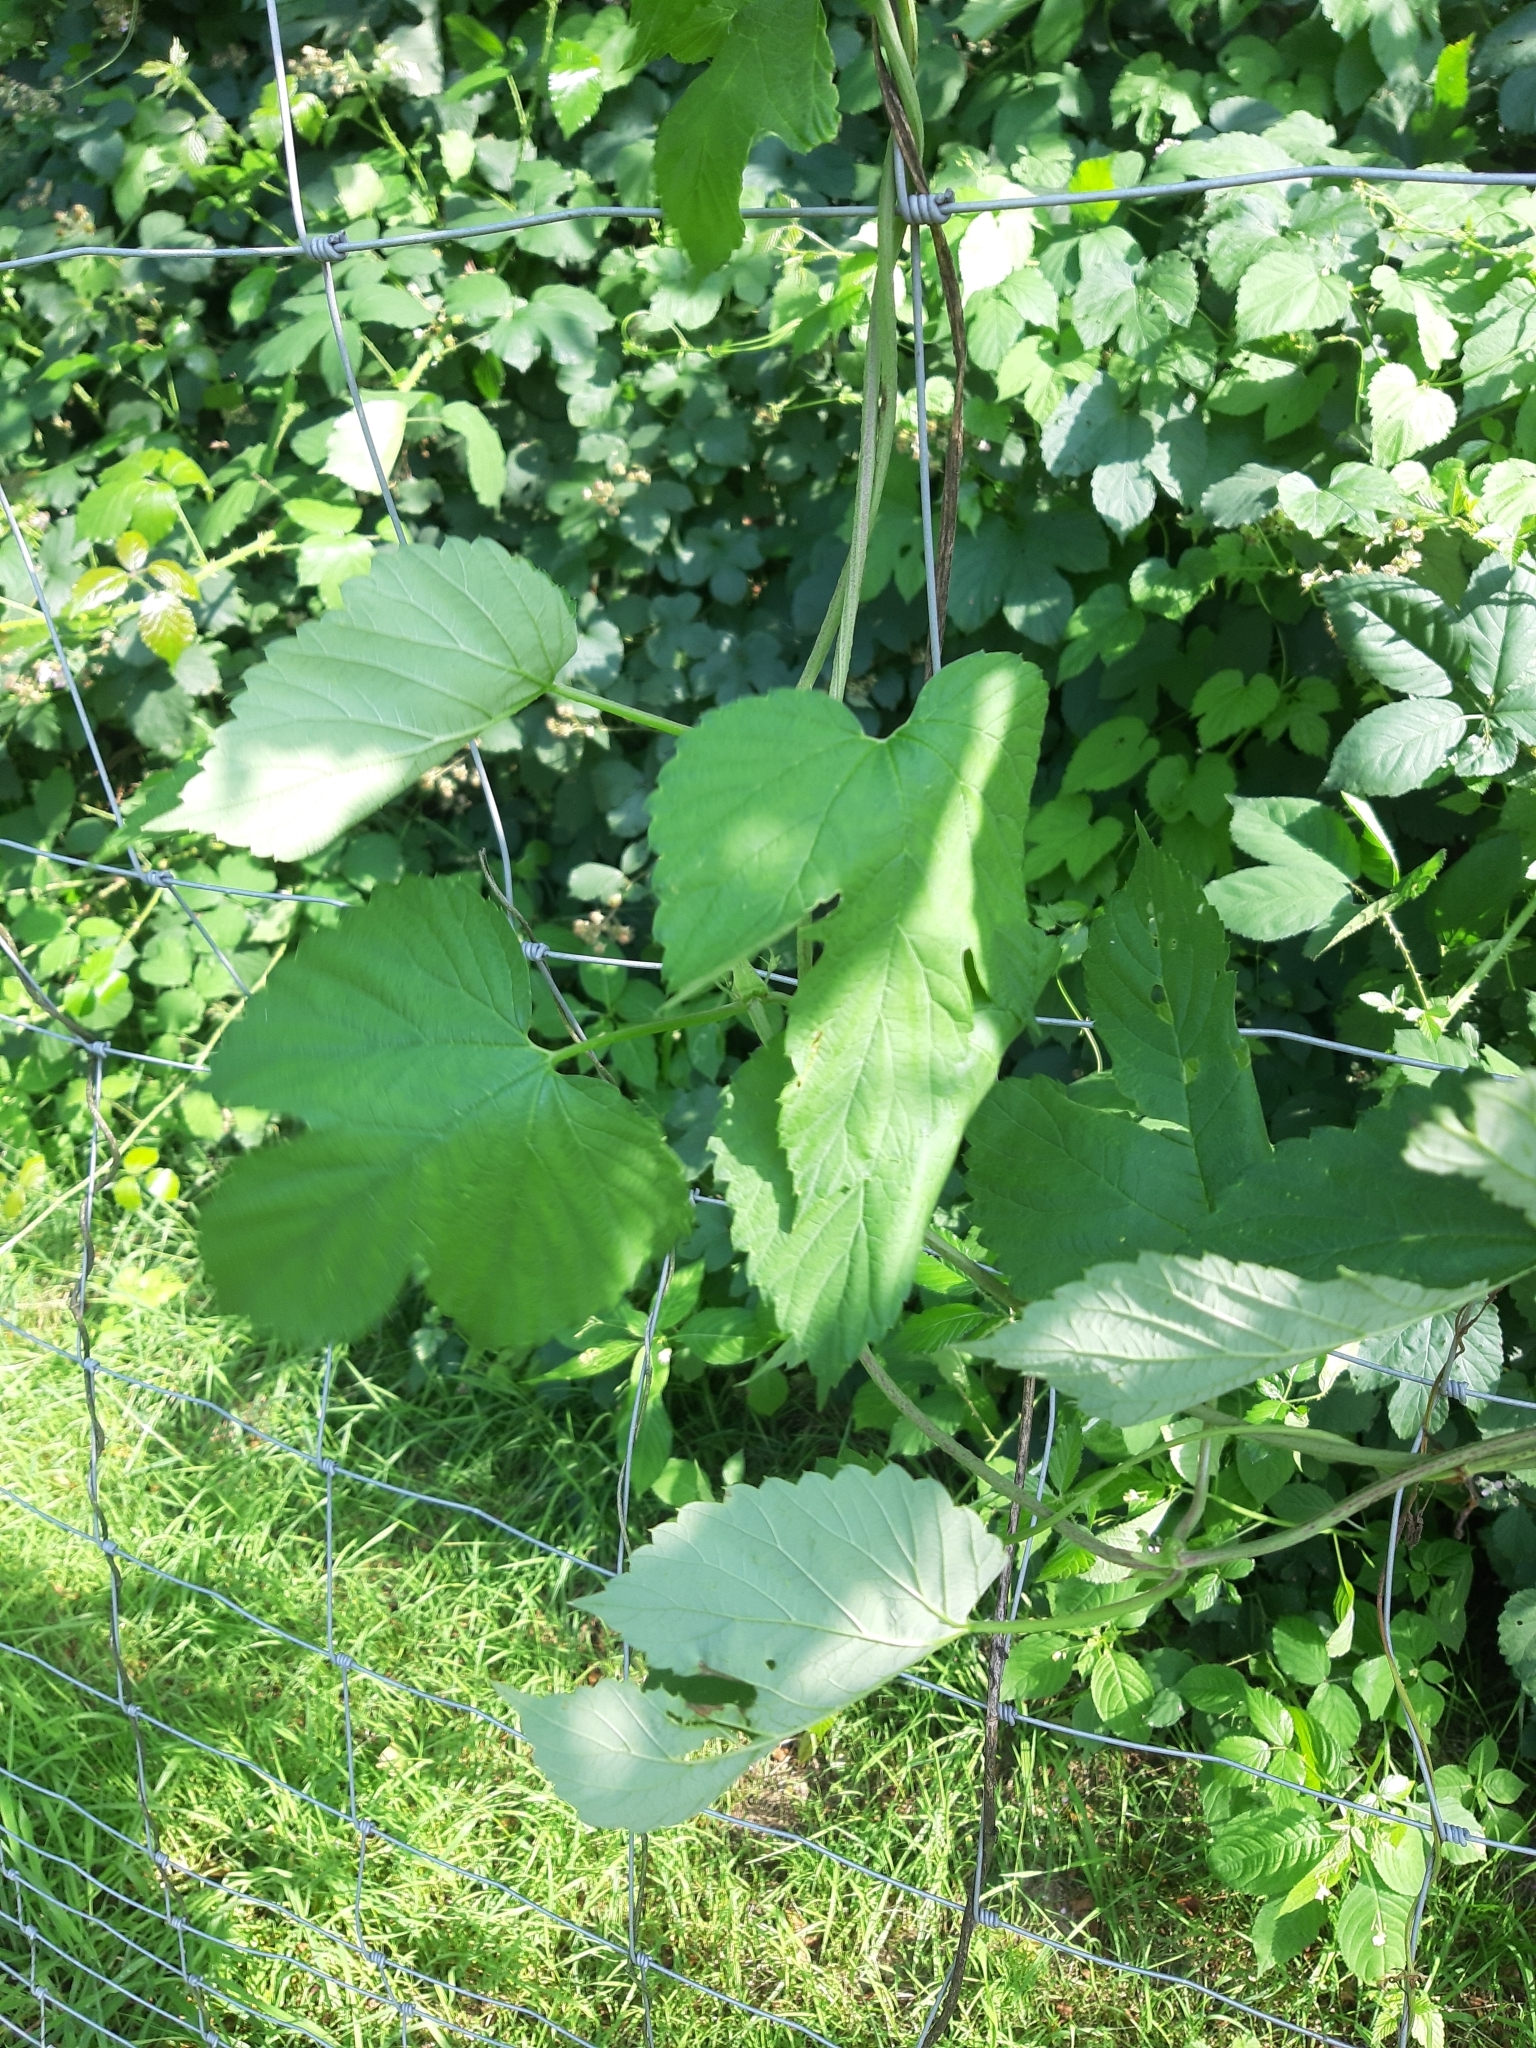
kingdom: Plantae
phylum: Tracheophyta
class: Magnoliopsida
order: Rosales
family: Cannabaceae
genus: Humulus
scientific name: Humulus lupulus
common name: Hop
